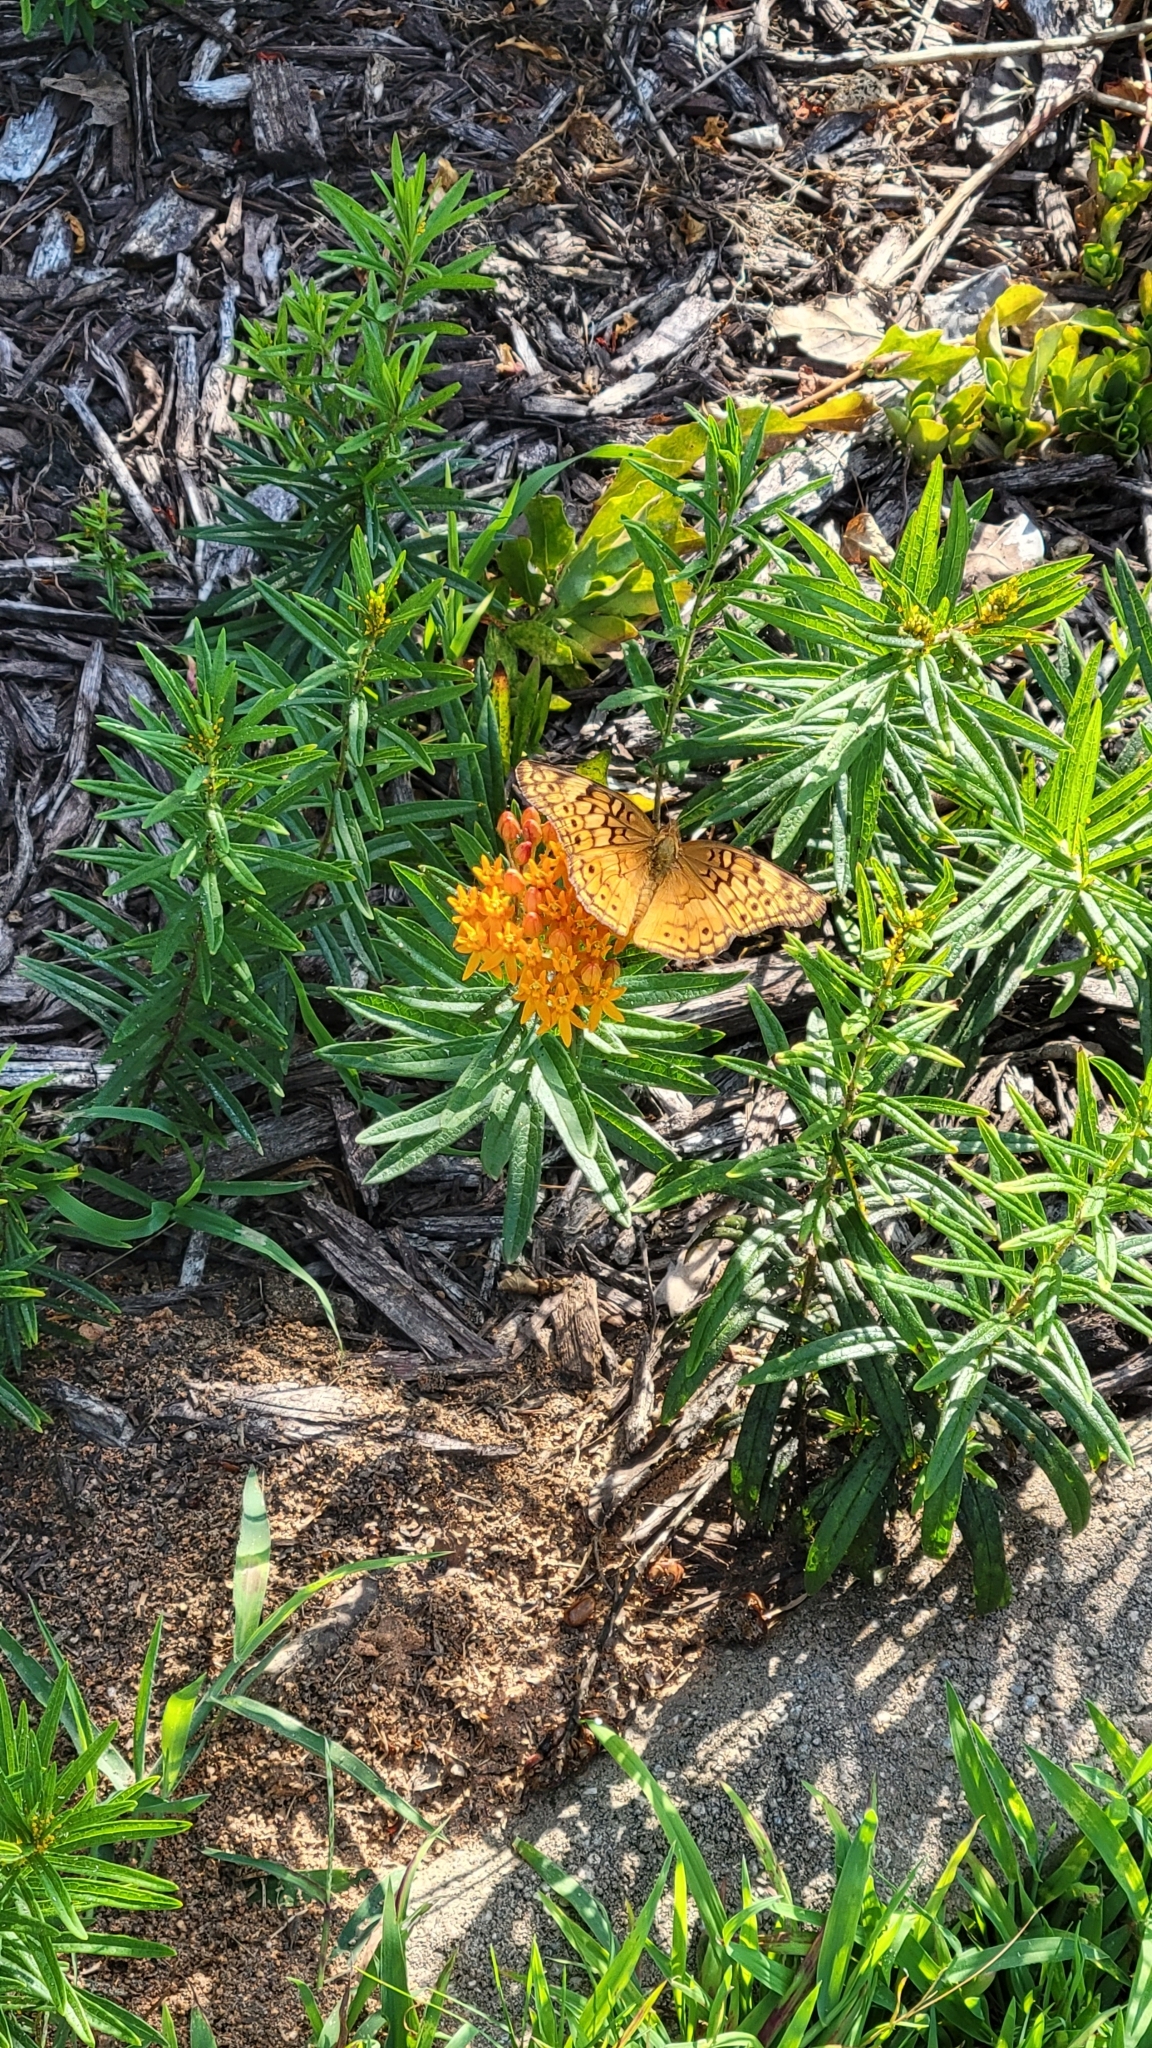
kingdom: Animalia
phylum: Arthropoda
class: Insecta
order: Lepidoptera
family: Nymphalidae
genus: Euptoieta
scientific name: Euptoieta claudia
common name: Variegated fritillary
